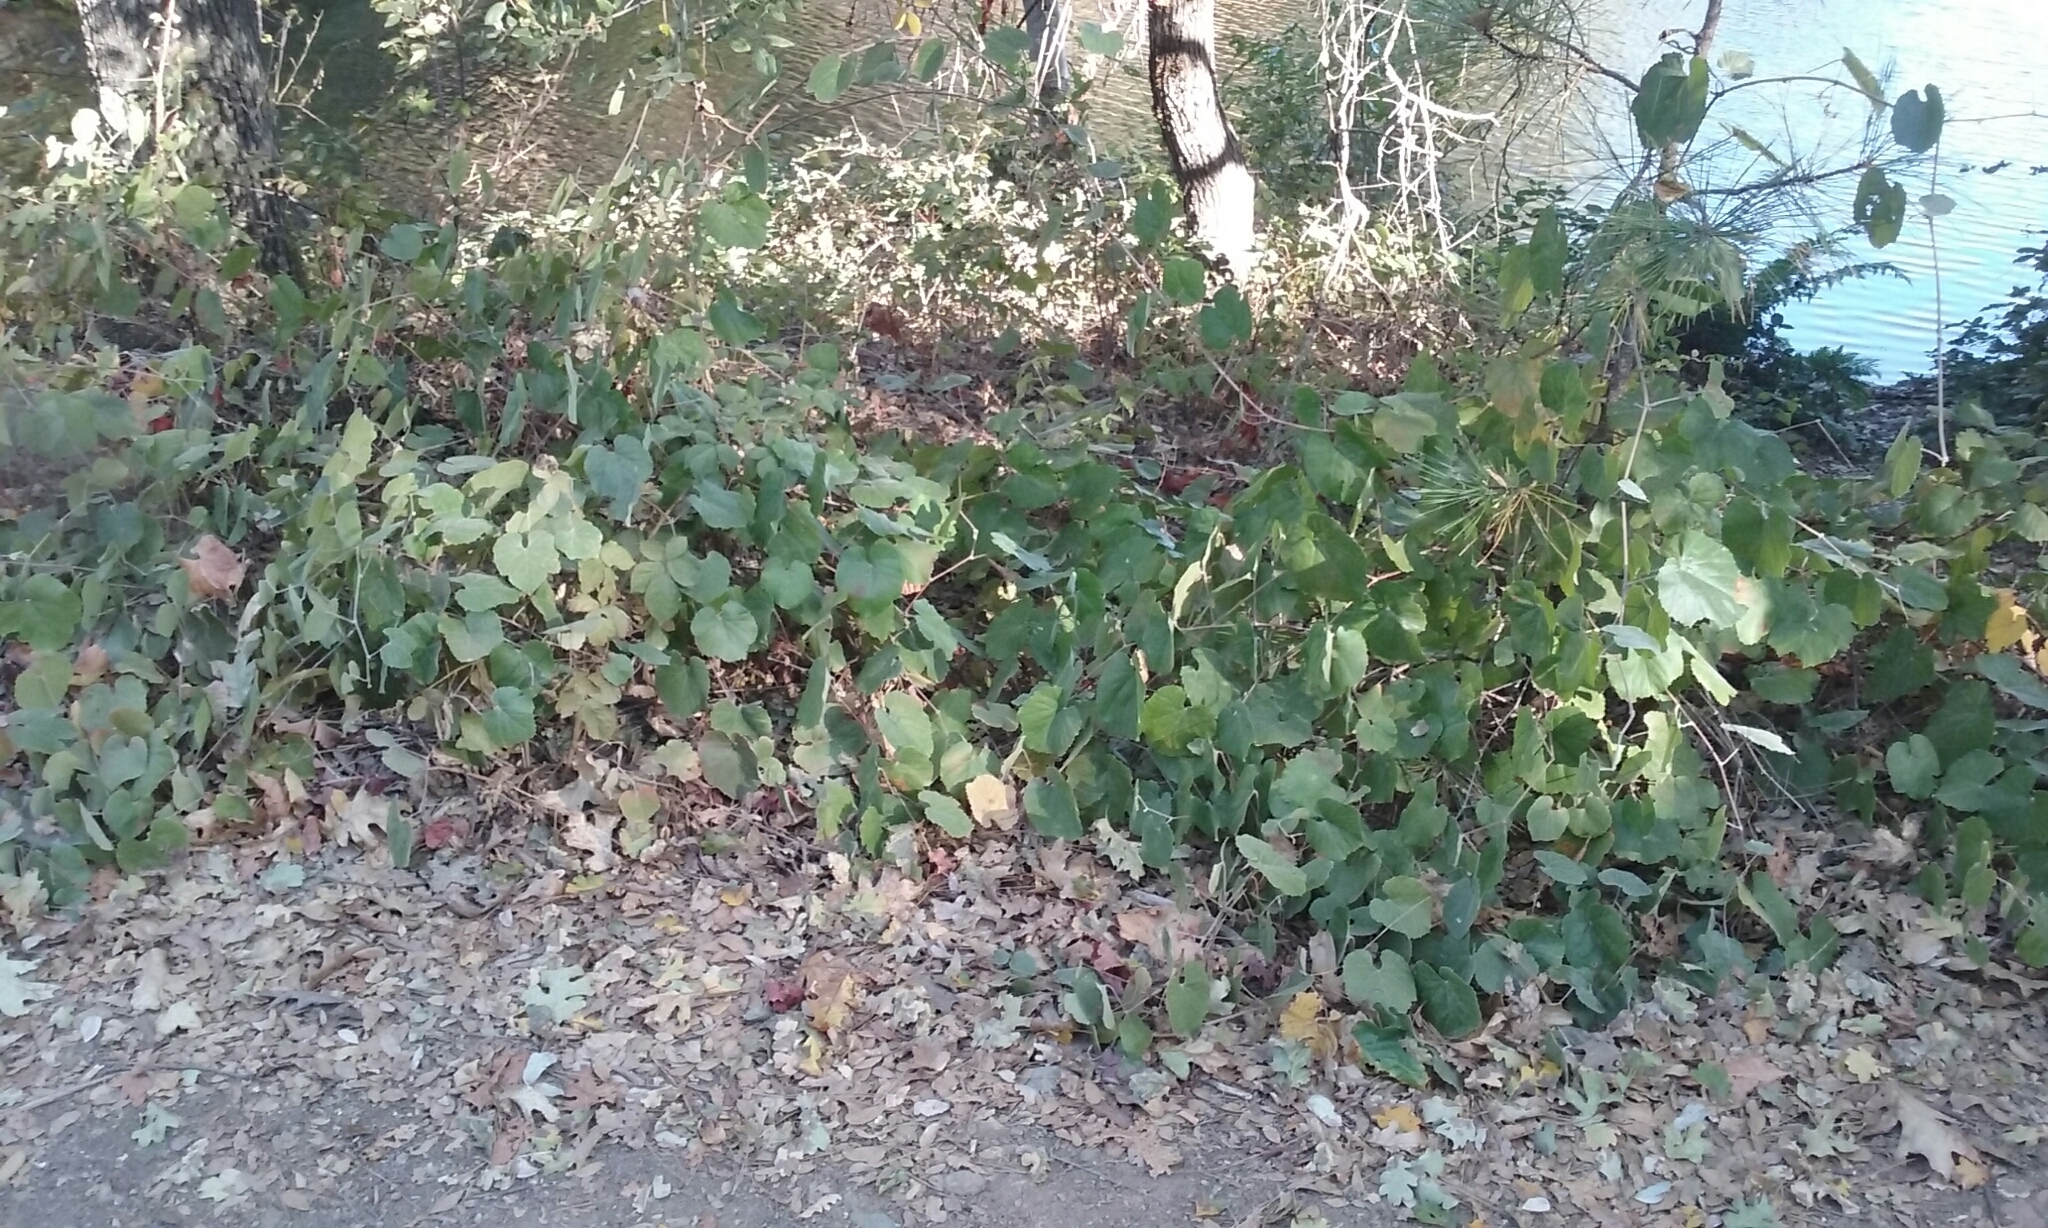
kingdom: Plantae
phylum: Tracheophyta
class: Magnoliopsida
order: Vitales
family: Vitaceae
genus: Vitis
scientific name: Vitis californica
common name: California wild grape
